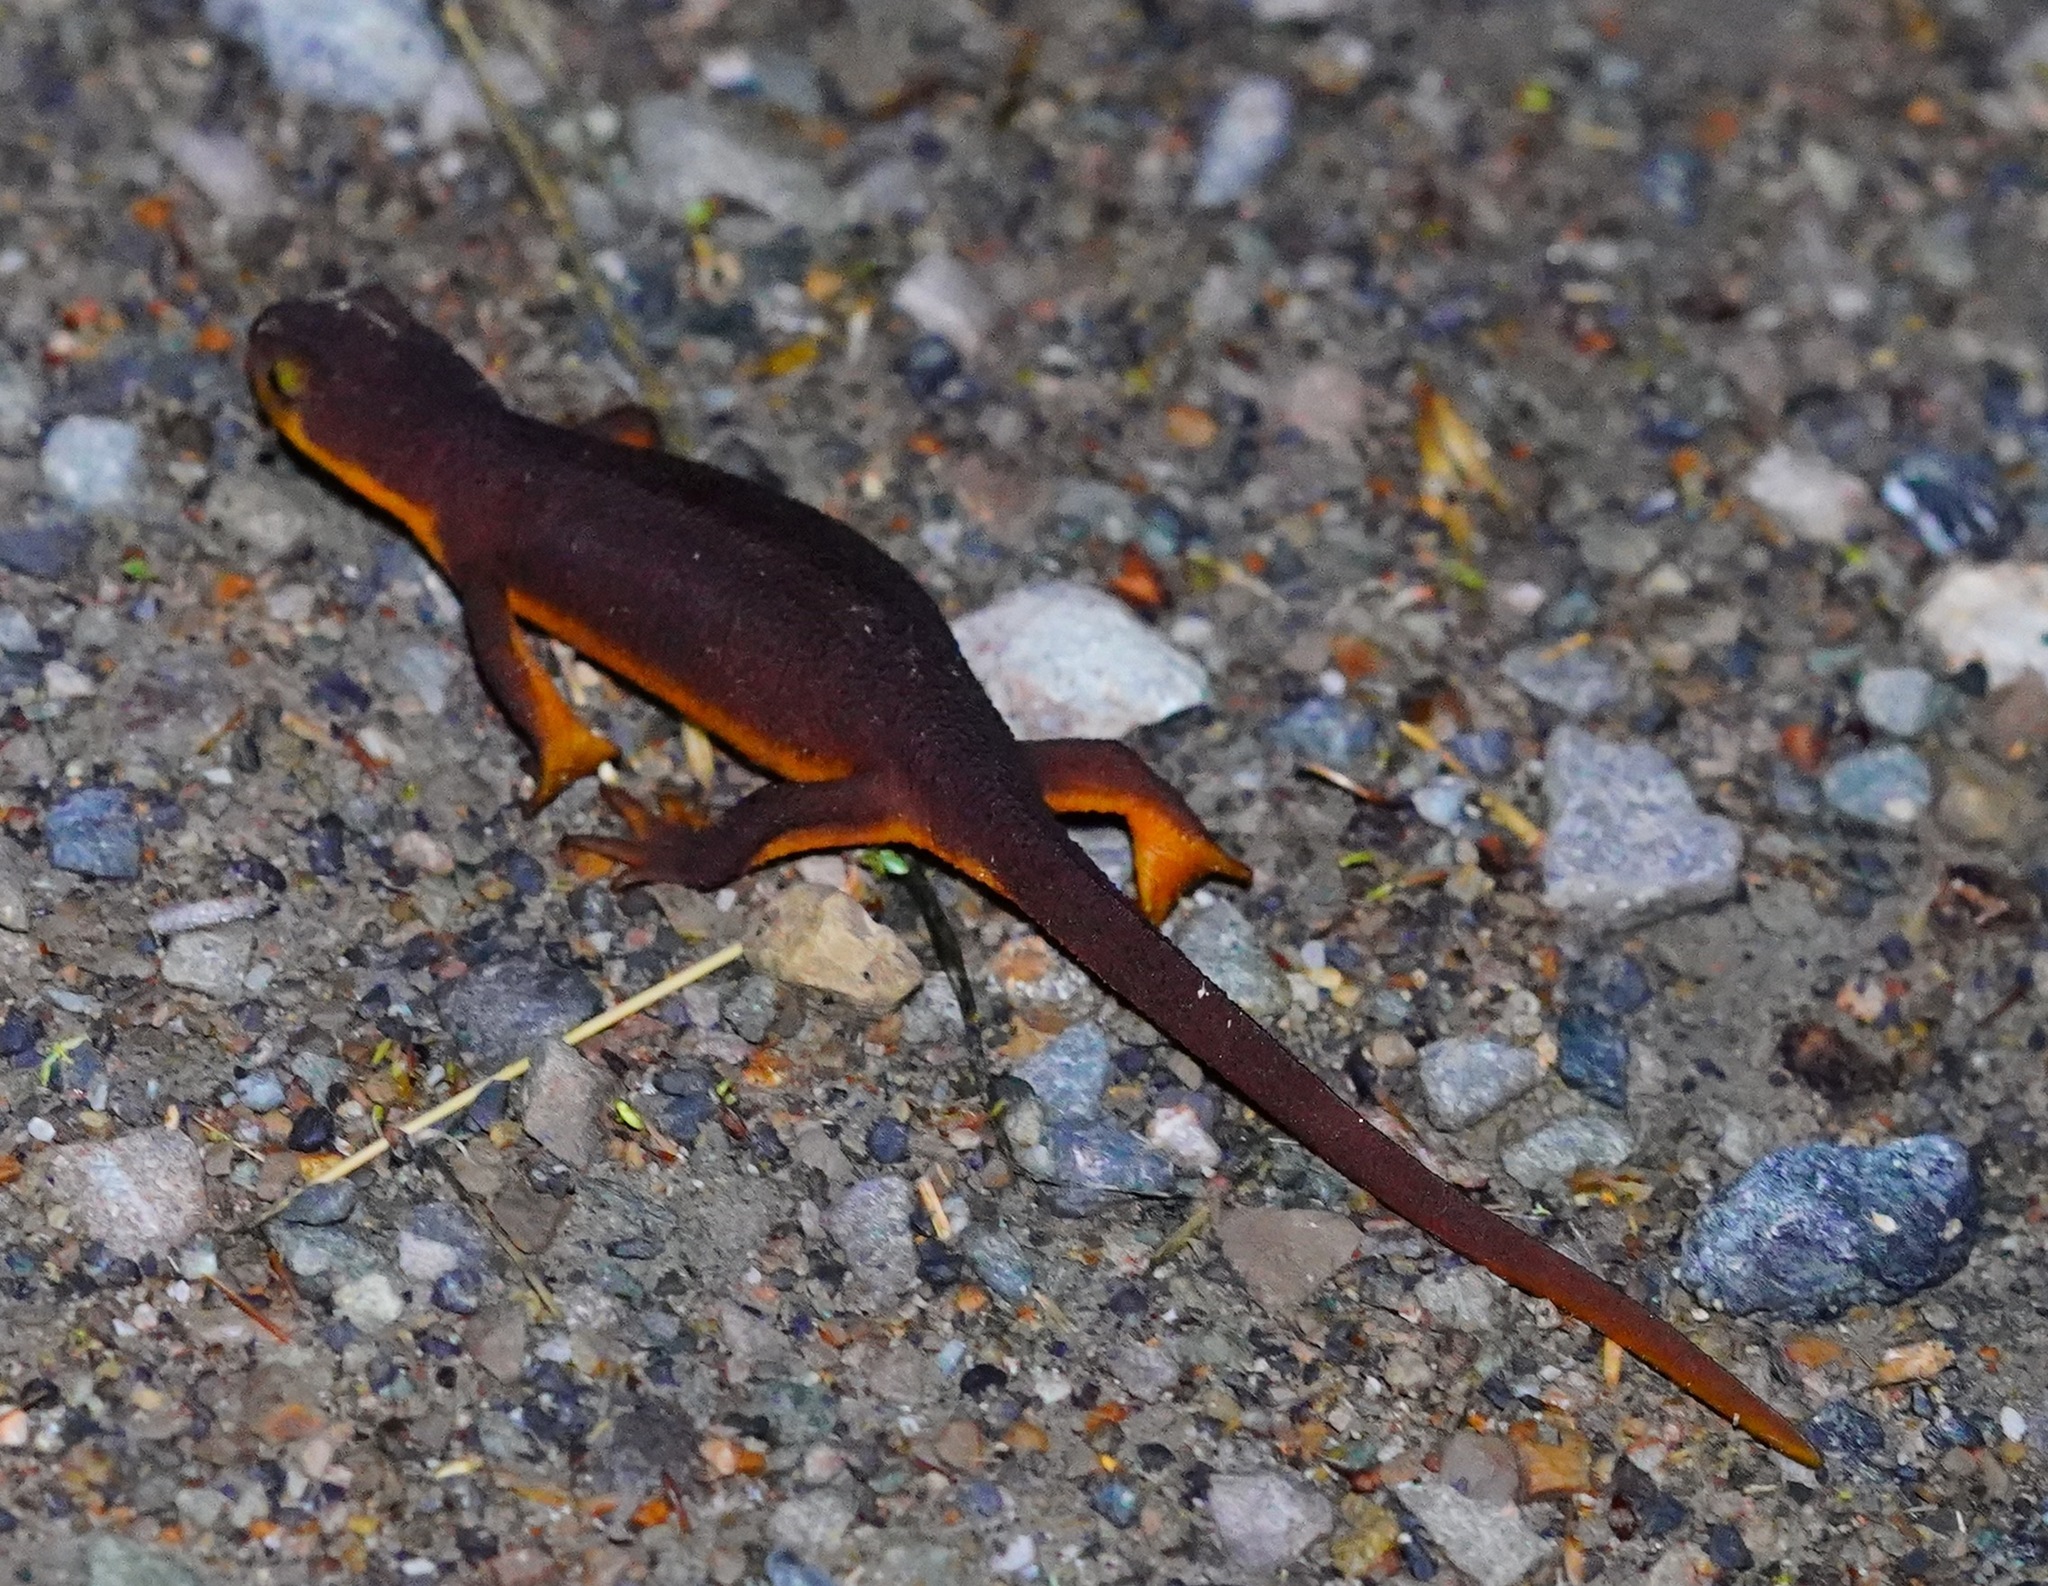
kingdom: Animalia
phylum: Chordata
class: Amphibia
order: Caudata
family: Salamandridae
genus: Taricha
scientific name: Taricha torosa
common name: California newt
